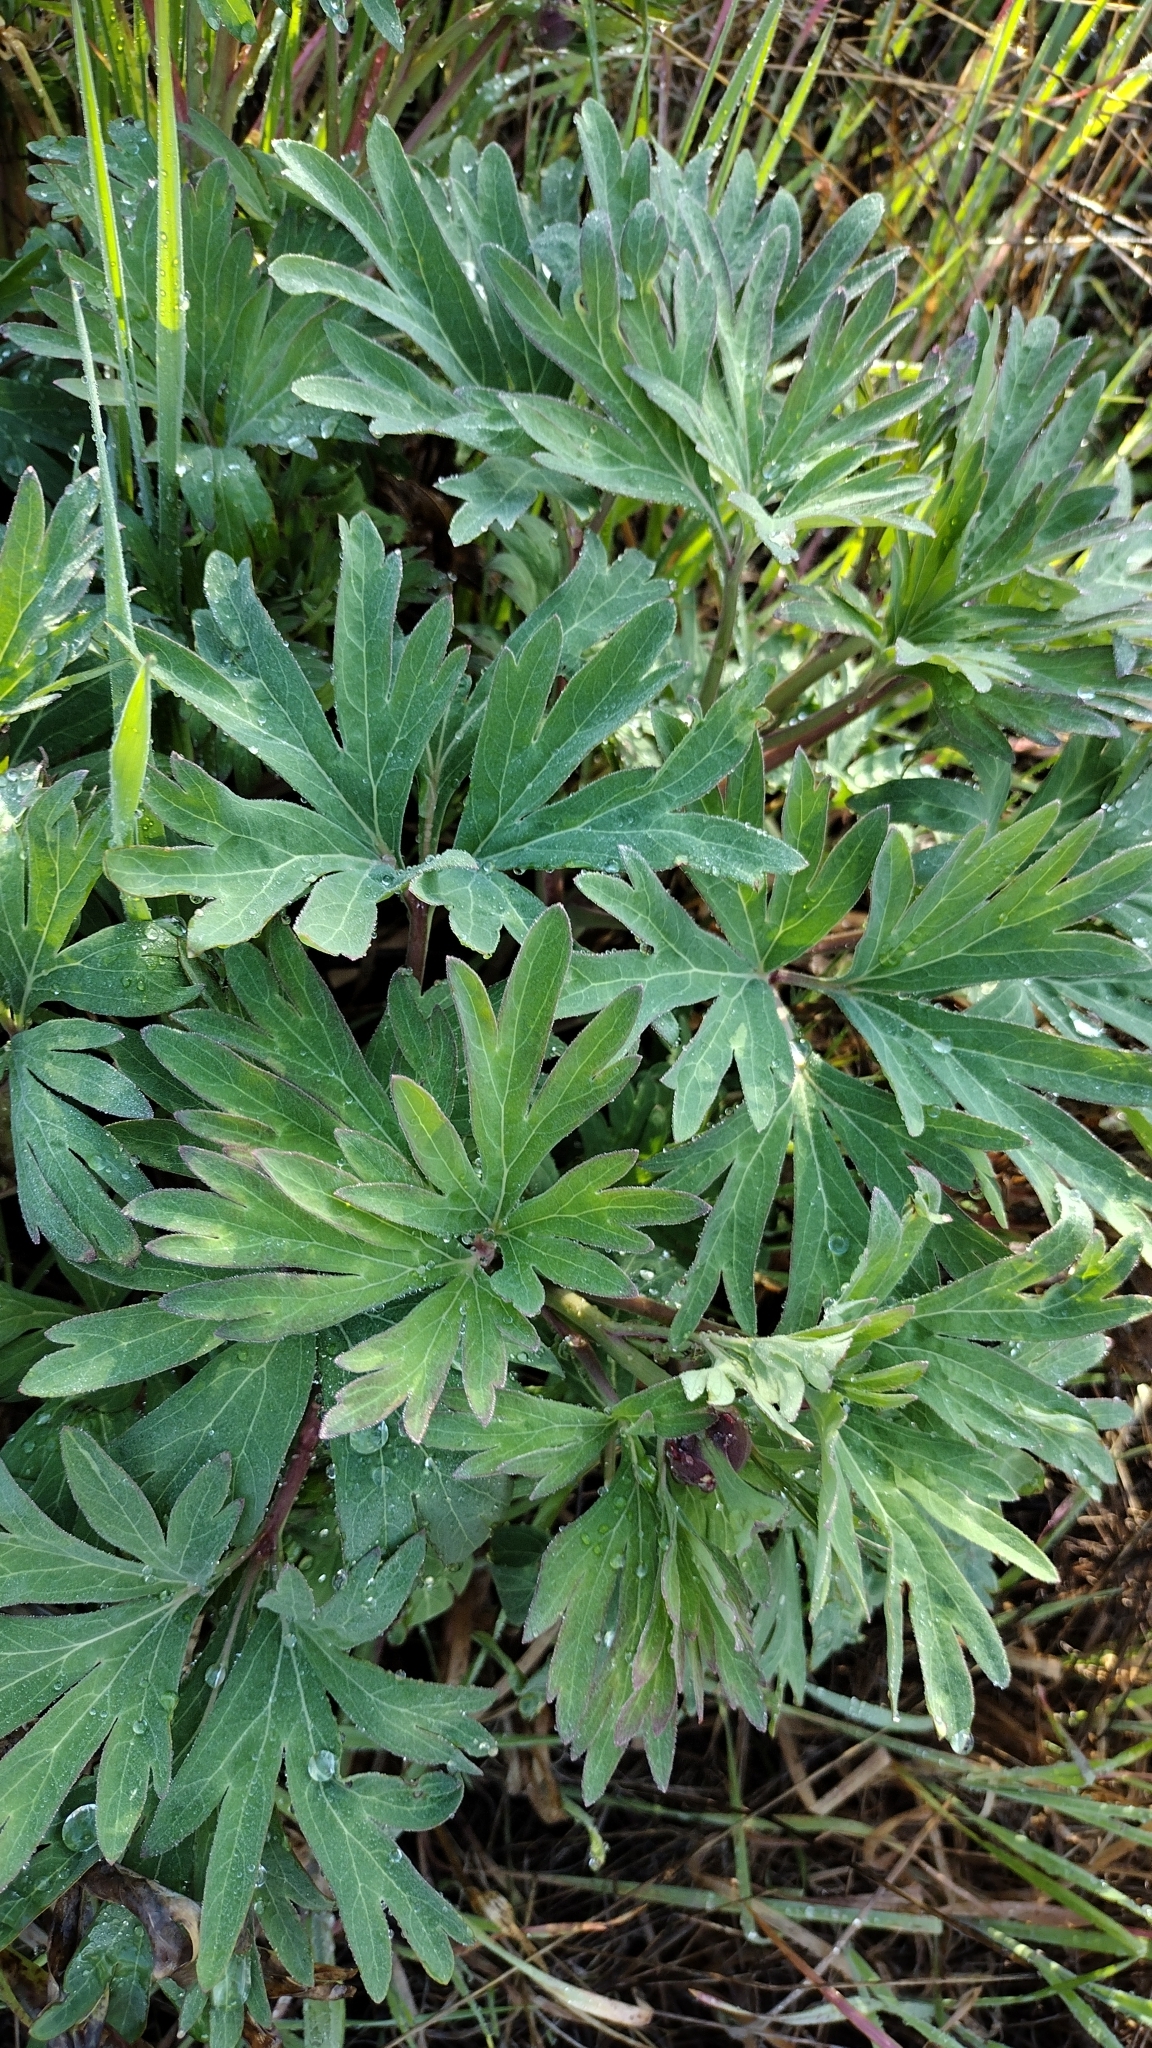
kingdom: Plantae
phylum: Tracheophyta
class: Magnoliopsida
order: Saxifragales
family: Paeoniaceae
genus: Paeonia
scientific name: Paeonia californica
